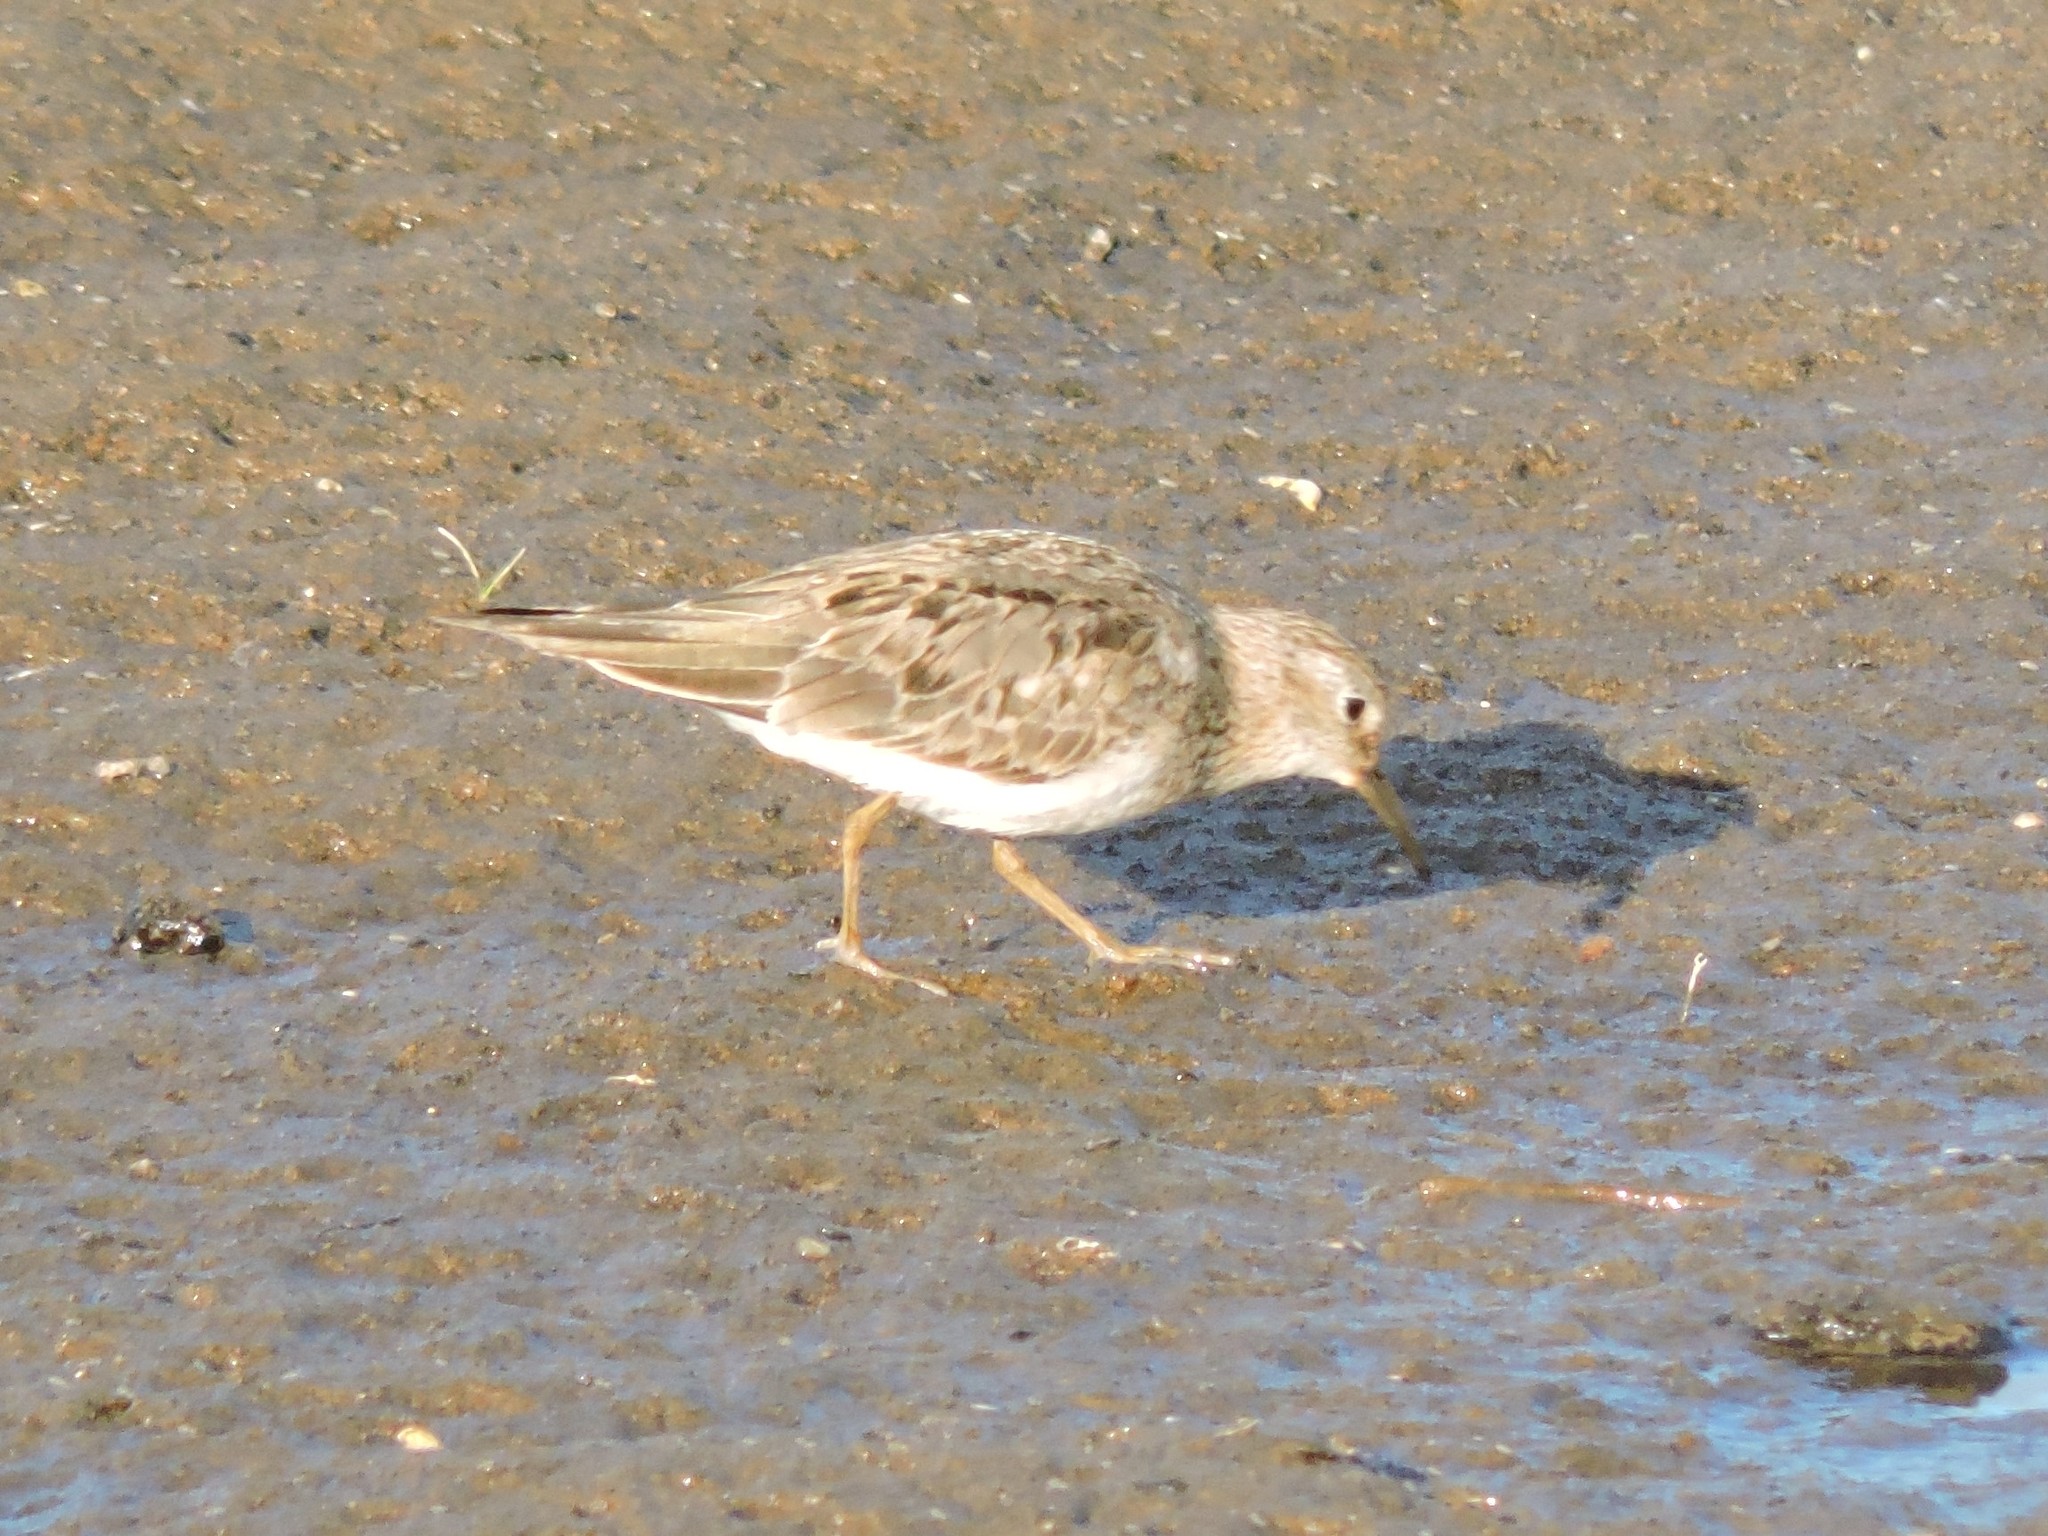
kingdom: Animalia
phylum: Chordata
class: Aves
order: Charadriiformes
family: Scolopacidae
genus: Calidris
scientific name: Calidris temminckii
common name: Temminck's stint
